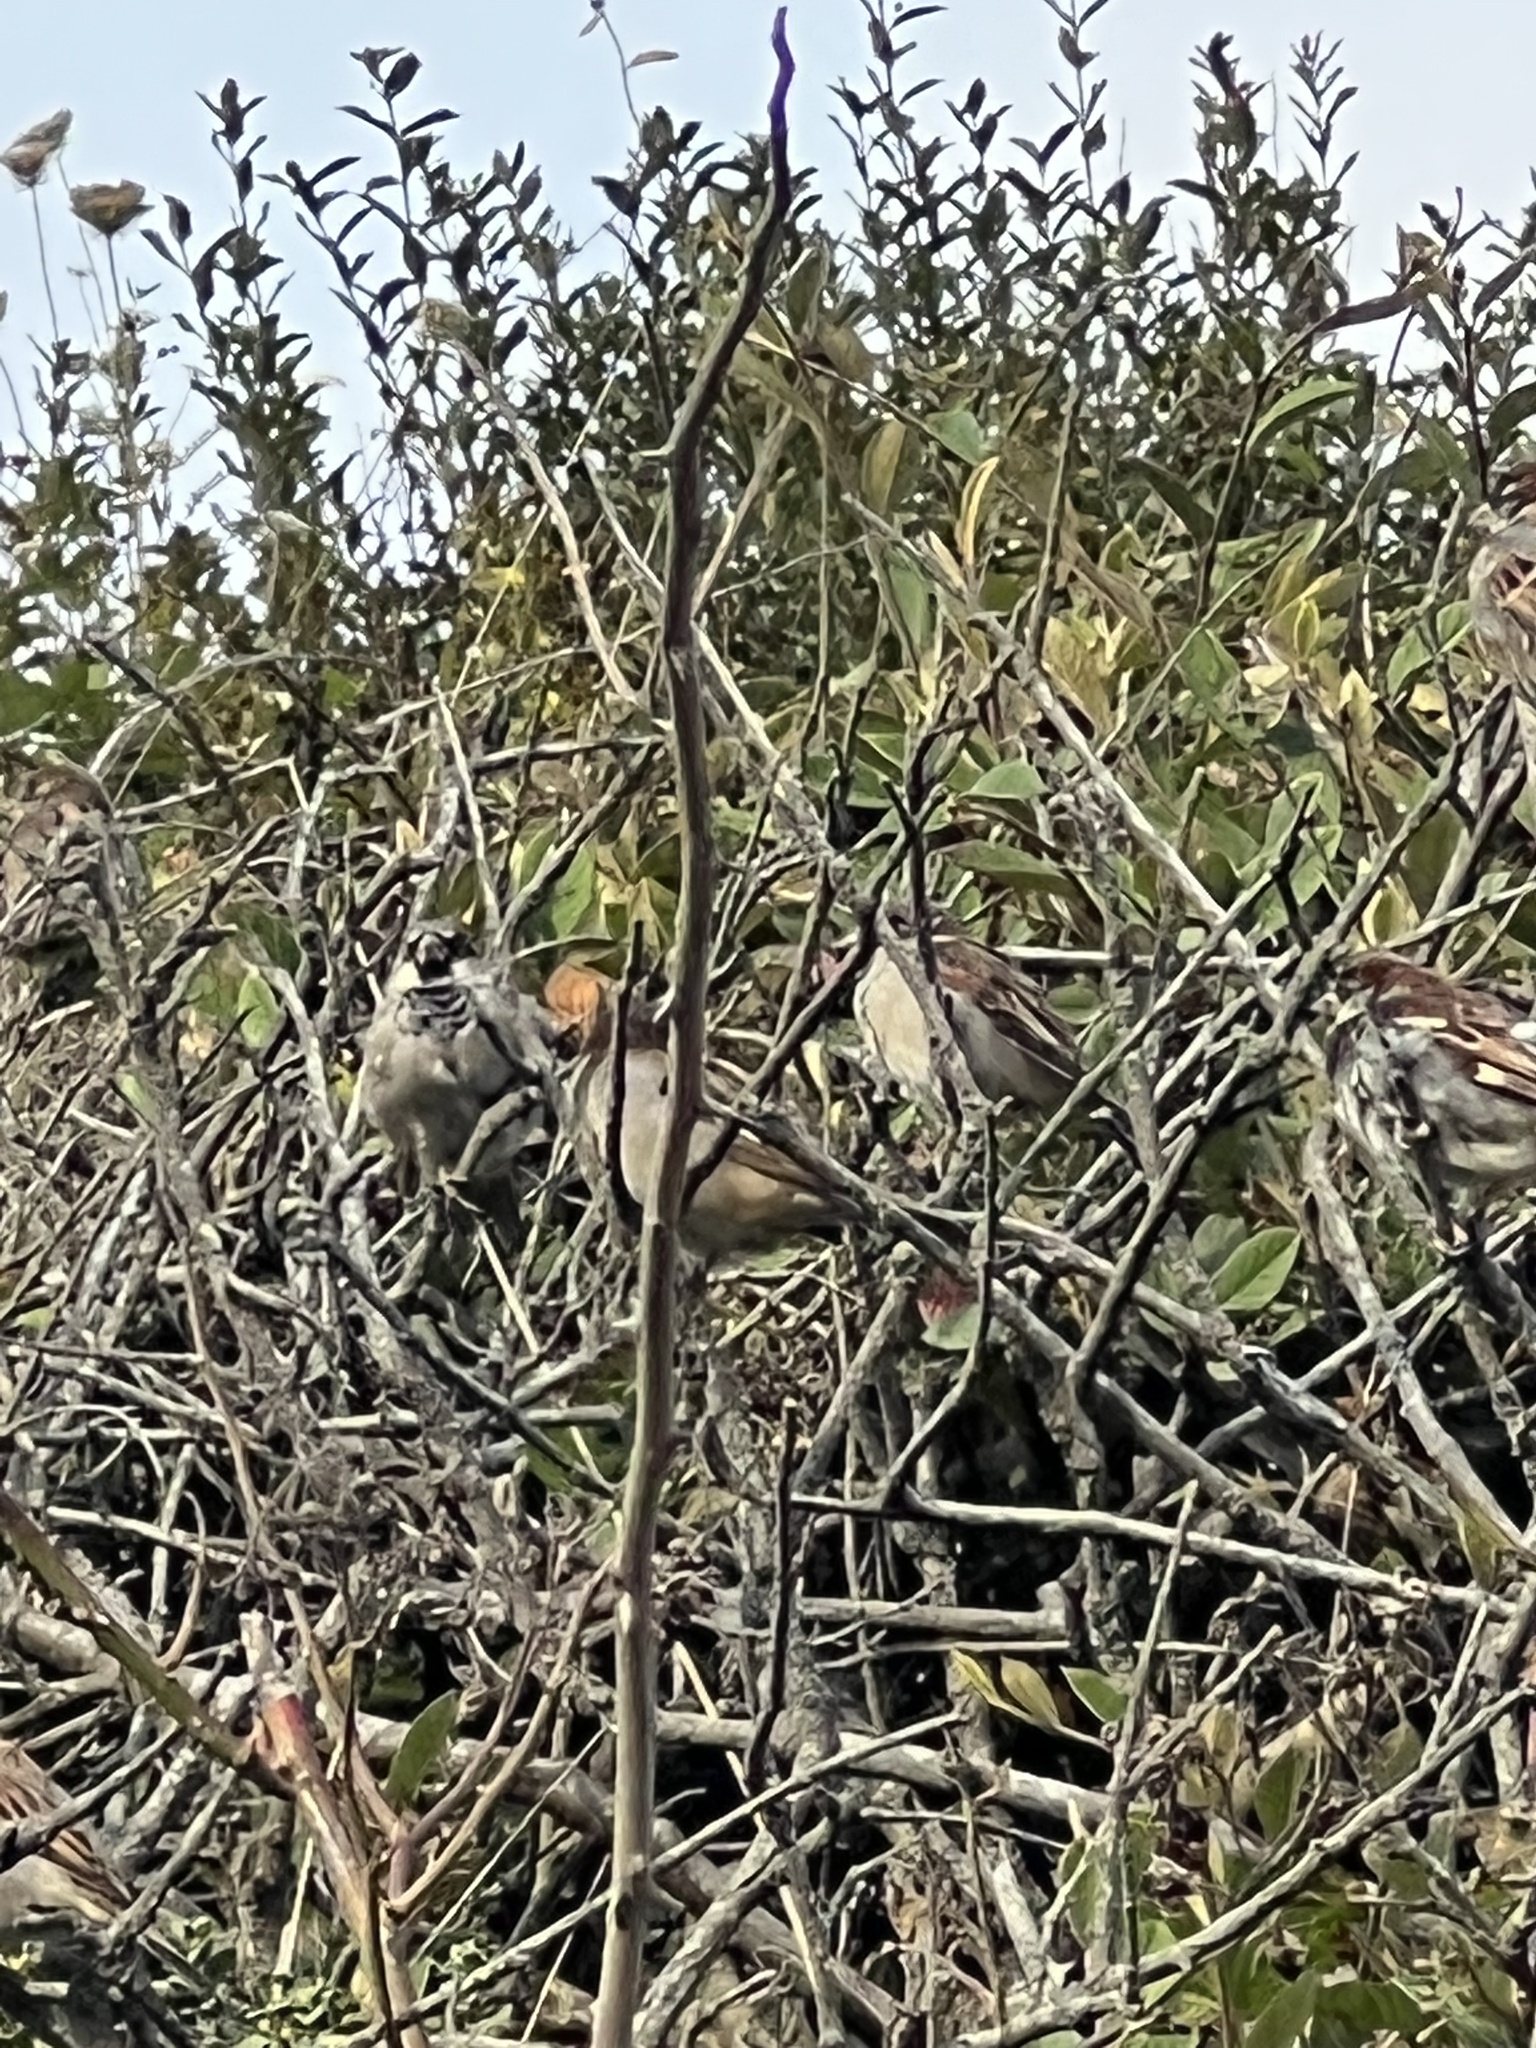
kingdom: Animalia
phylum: Chordata
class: Aves
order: Passeriformes
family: Passeridae
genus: Passer
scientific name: Passer domesticus
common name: House sparrow
